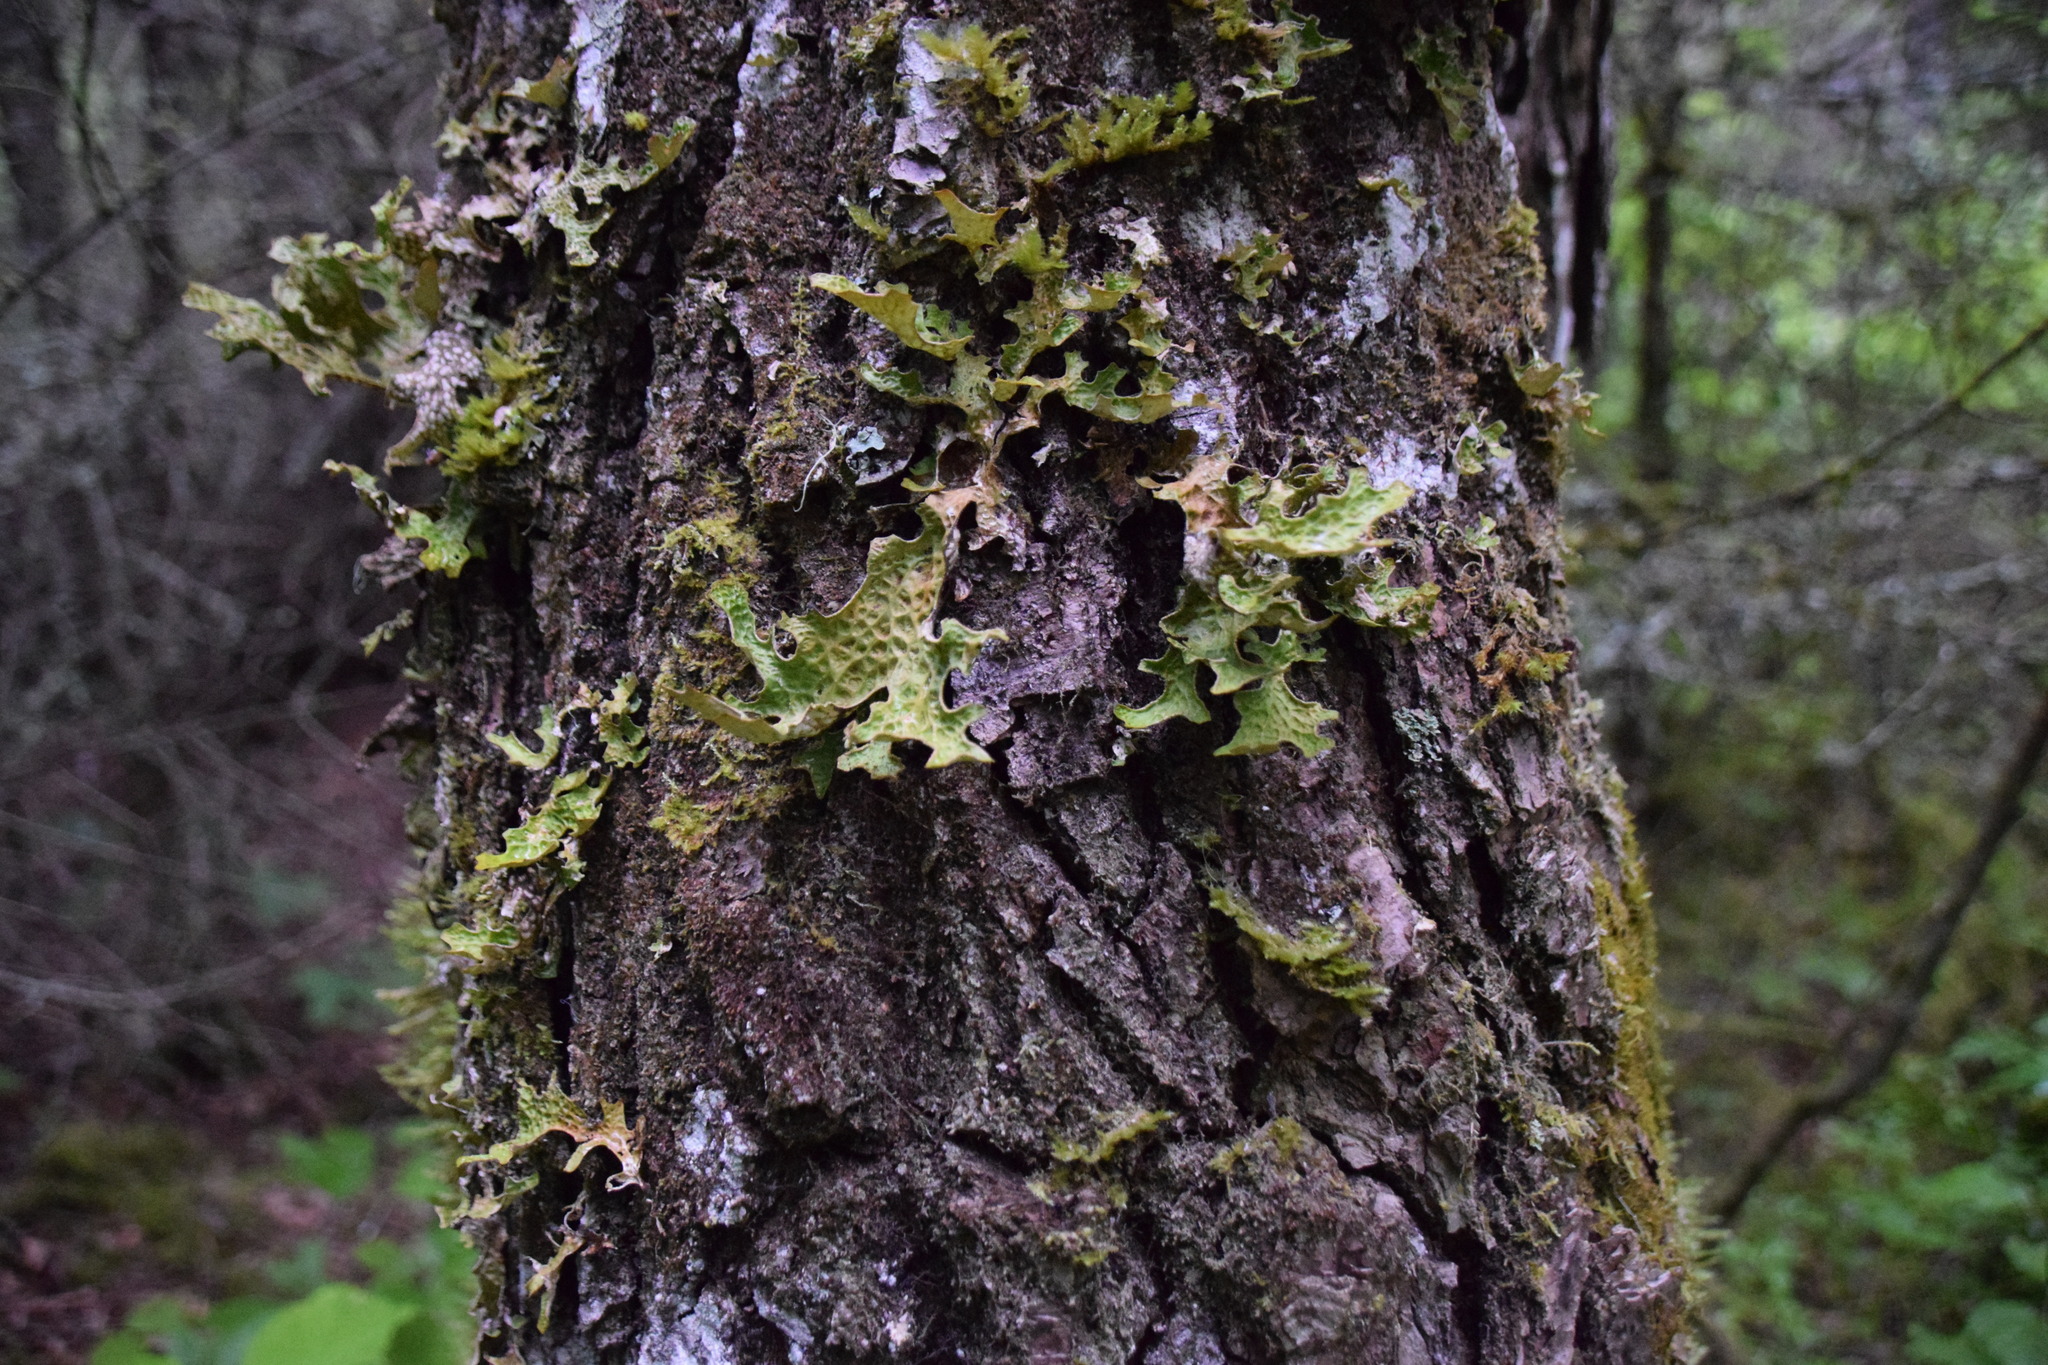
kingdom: Fungi
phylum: Ascomycota
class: Lecanoromycetes
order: Peltigerales
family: Lobariaceae
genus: Lobaria
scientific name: Lobaria pulmonaria
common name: Lungwort
